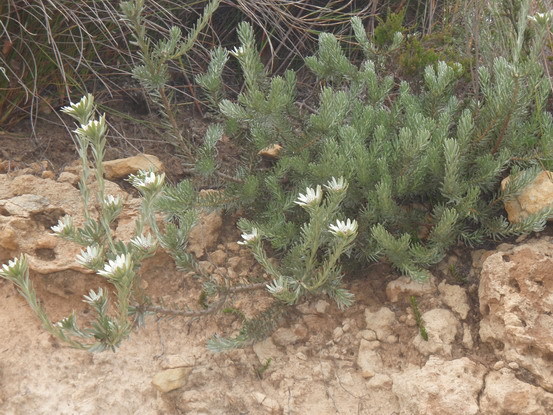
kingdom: Plantae
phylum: Tracheophyta
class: Magnoliopsida
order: Proteales
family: Proteaceae
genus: Leucadendron
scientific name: Leucadendron singulare
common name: Kammanassie conebush
